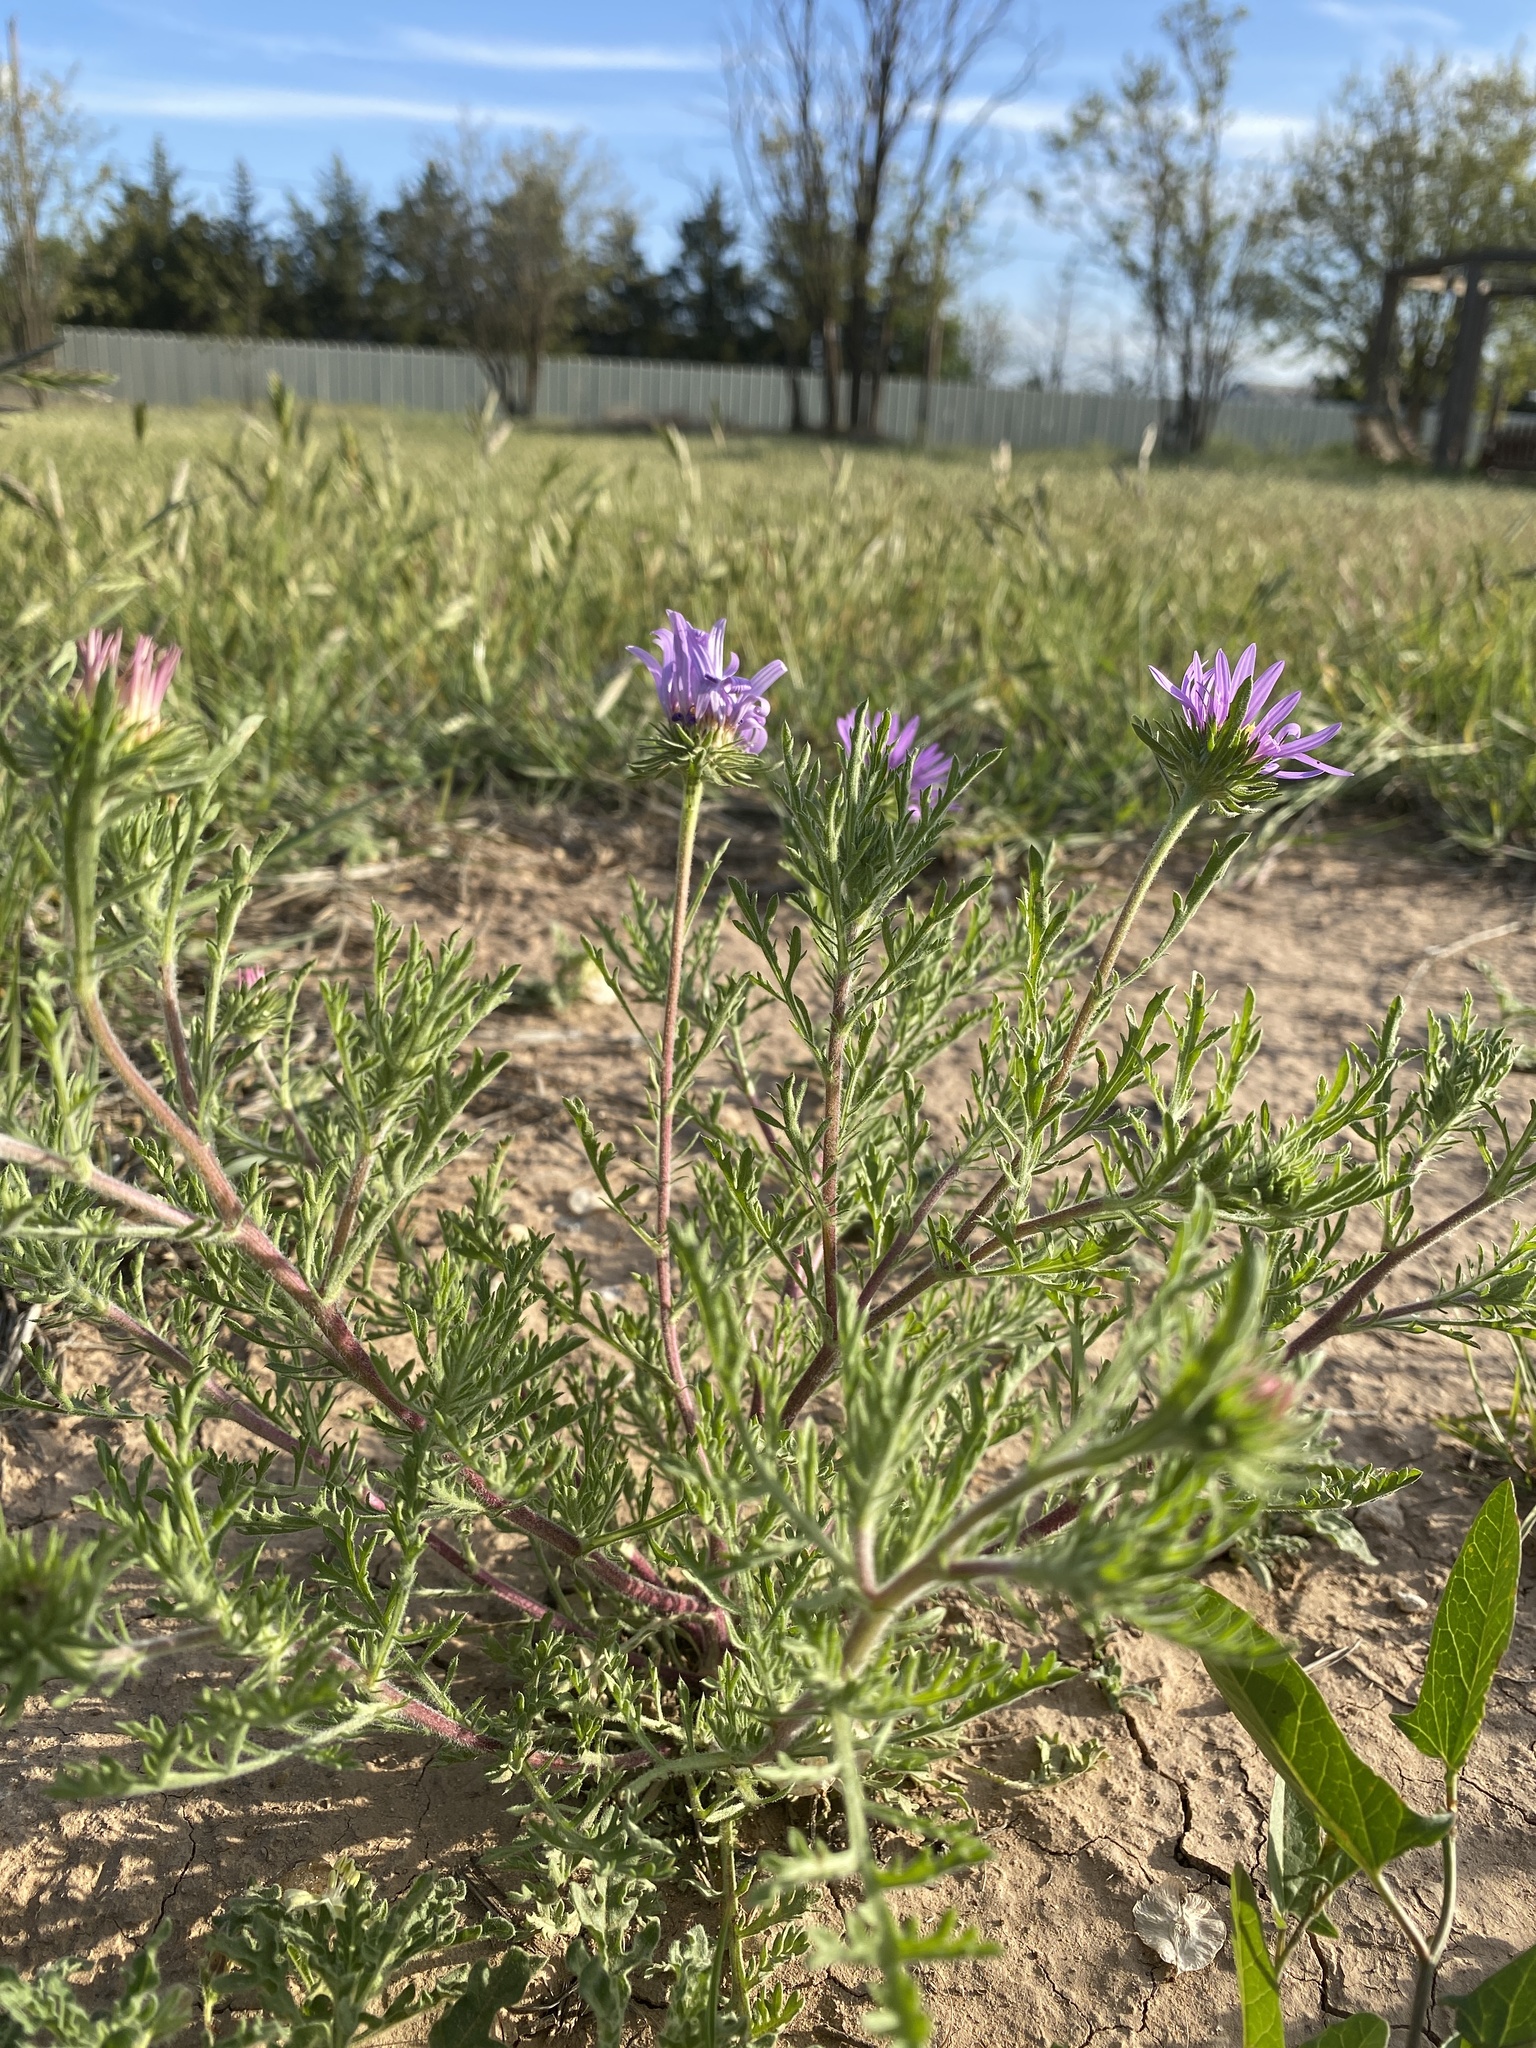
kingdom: Plantae
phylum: Tracheophyta
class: Magnoliopsida
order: Asterales
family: Asteraceae
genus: Machaeranthera
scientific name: Machaeranthera tanacetifolia
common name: Tansy-aster
